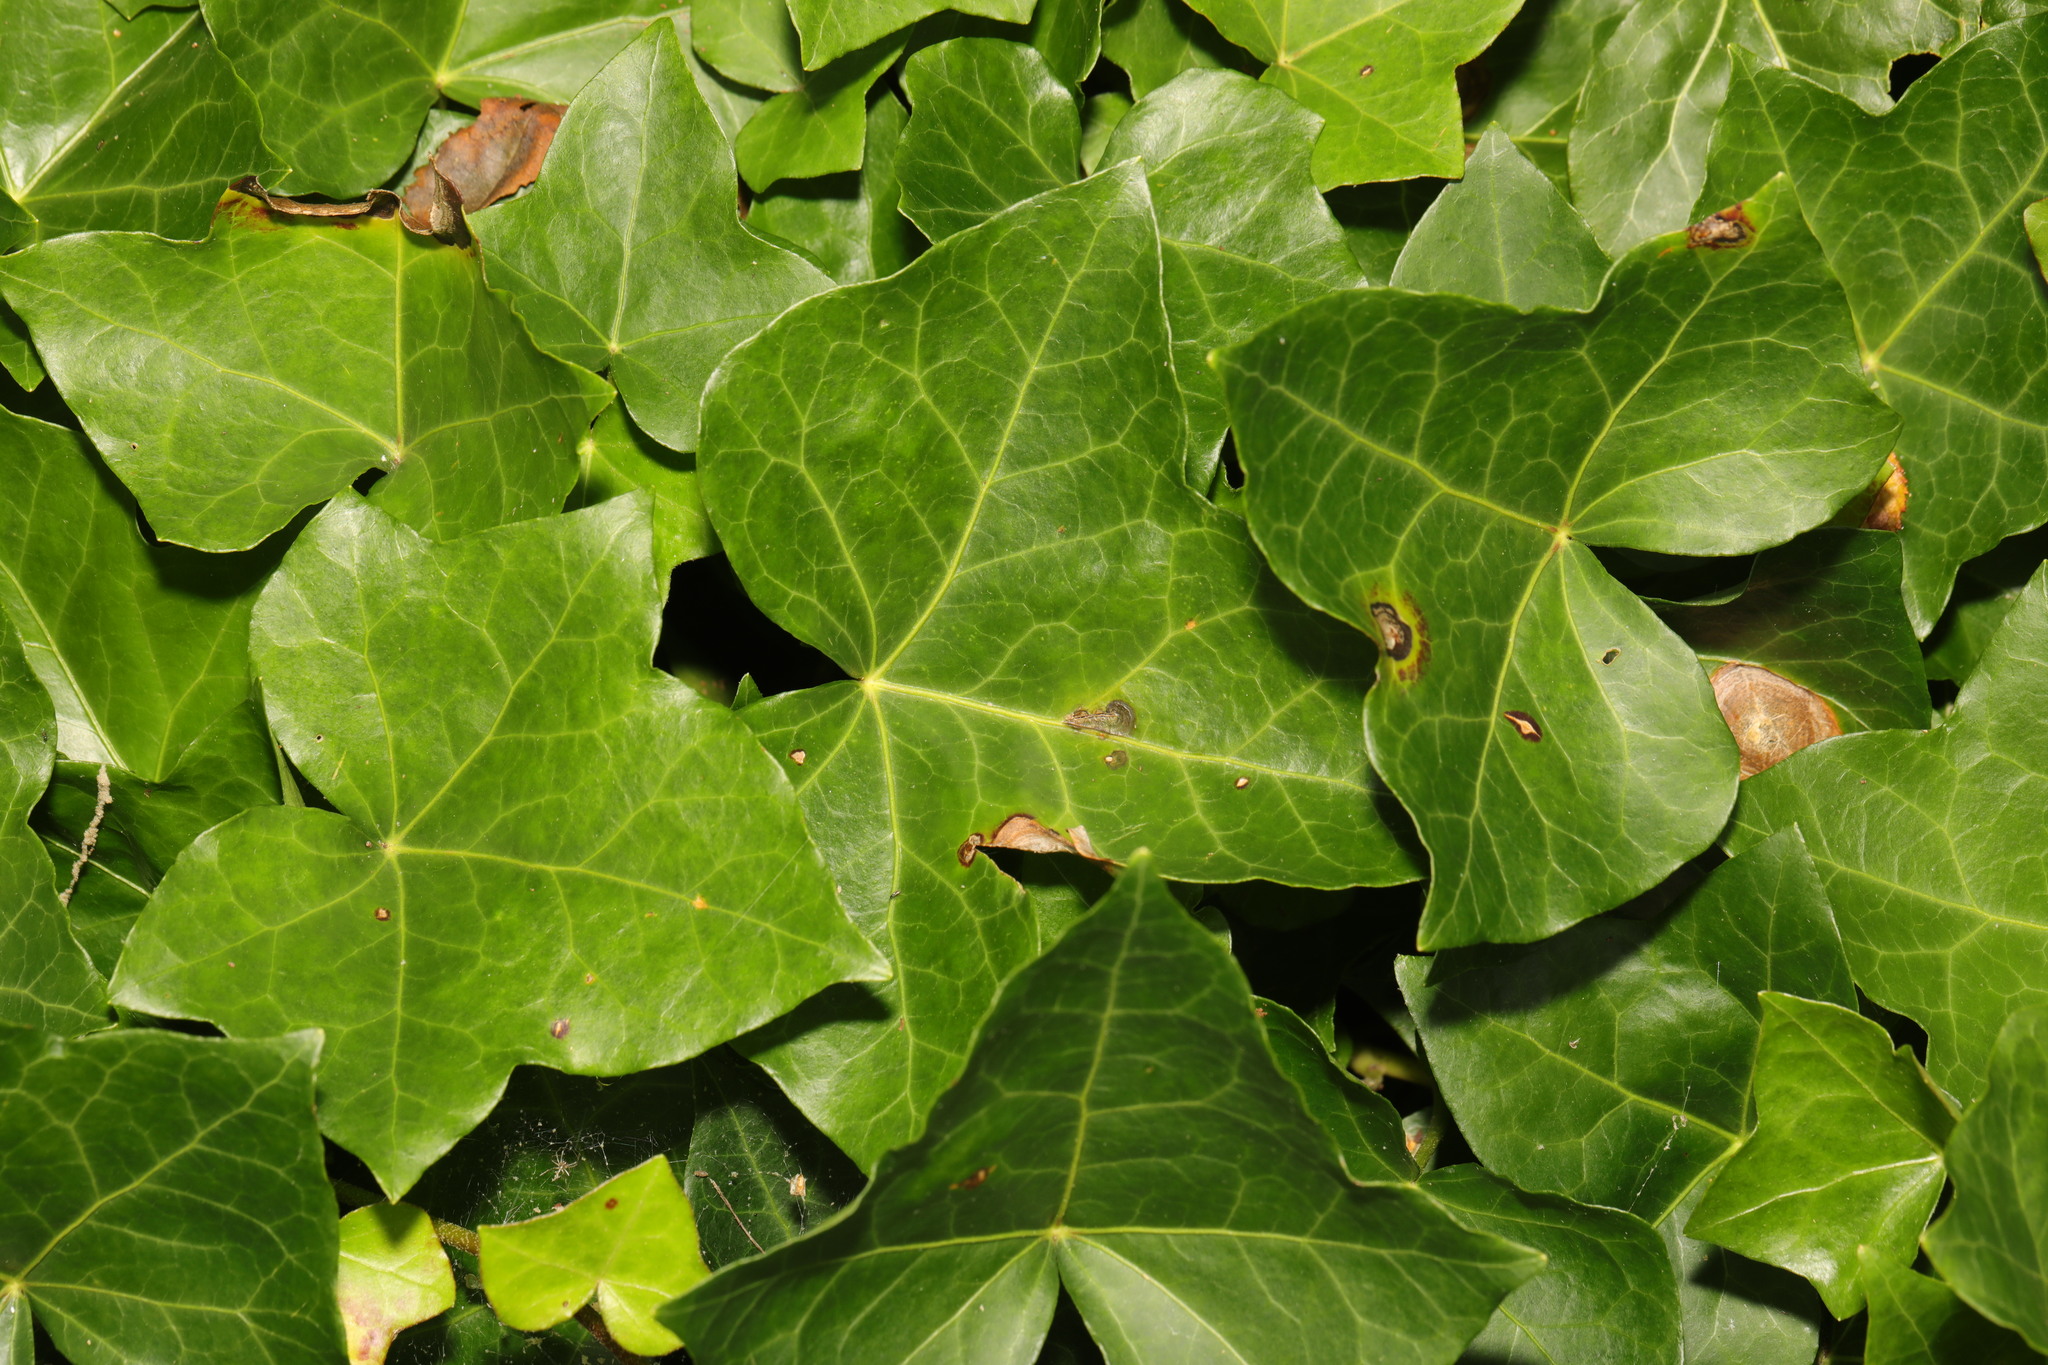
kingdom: Plantae
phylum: Tracheophyta
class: Magnoliopsida
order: Apiales
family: Araliaceae
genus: Hedera
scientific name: Hedera helix
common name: Ivy
